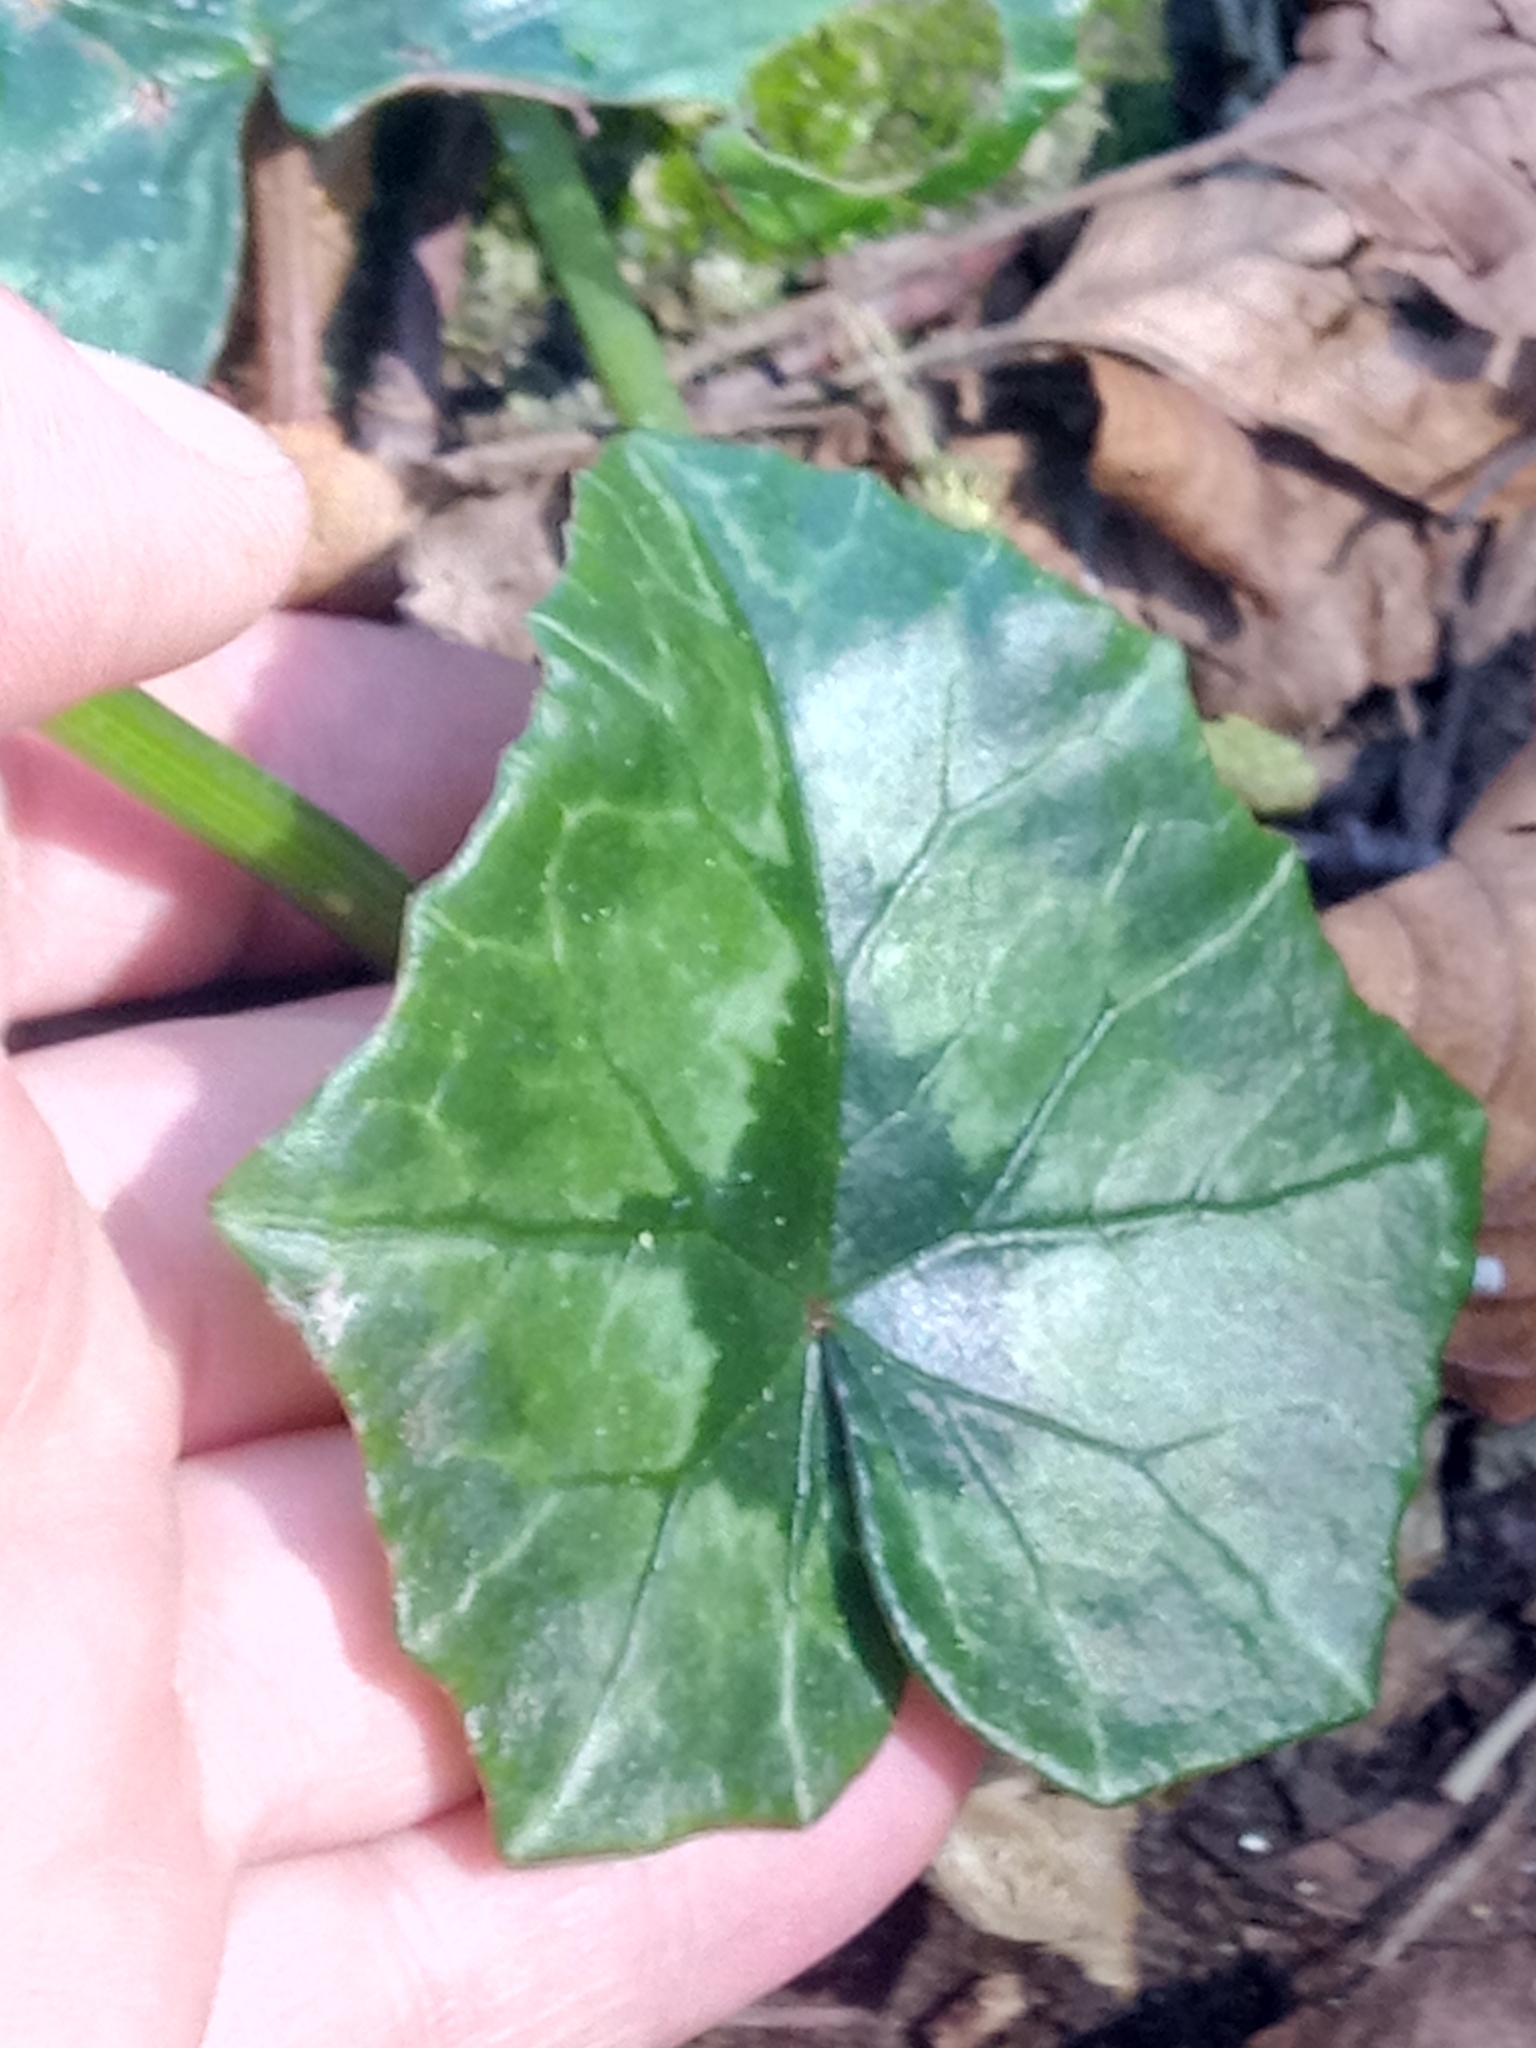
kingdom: Plantae
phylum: Tracheophyta
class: Magnoliopsida
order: Ericales
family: Primulaceae
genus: Cyclamen
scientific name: Cyclamen africanum
